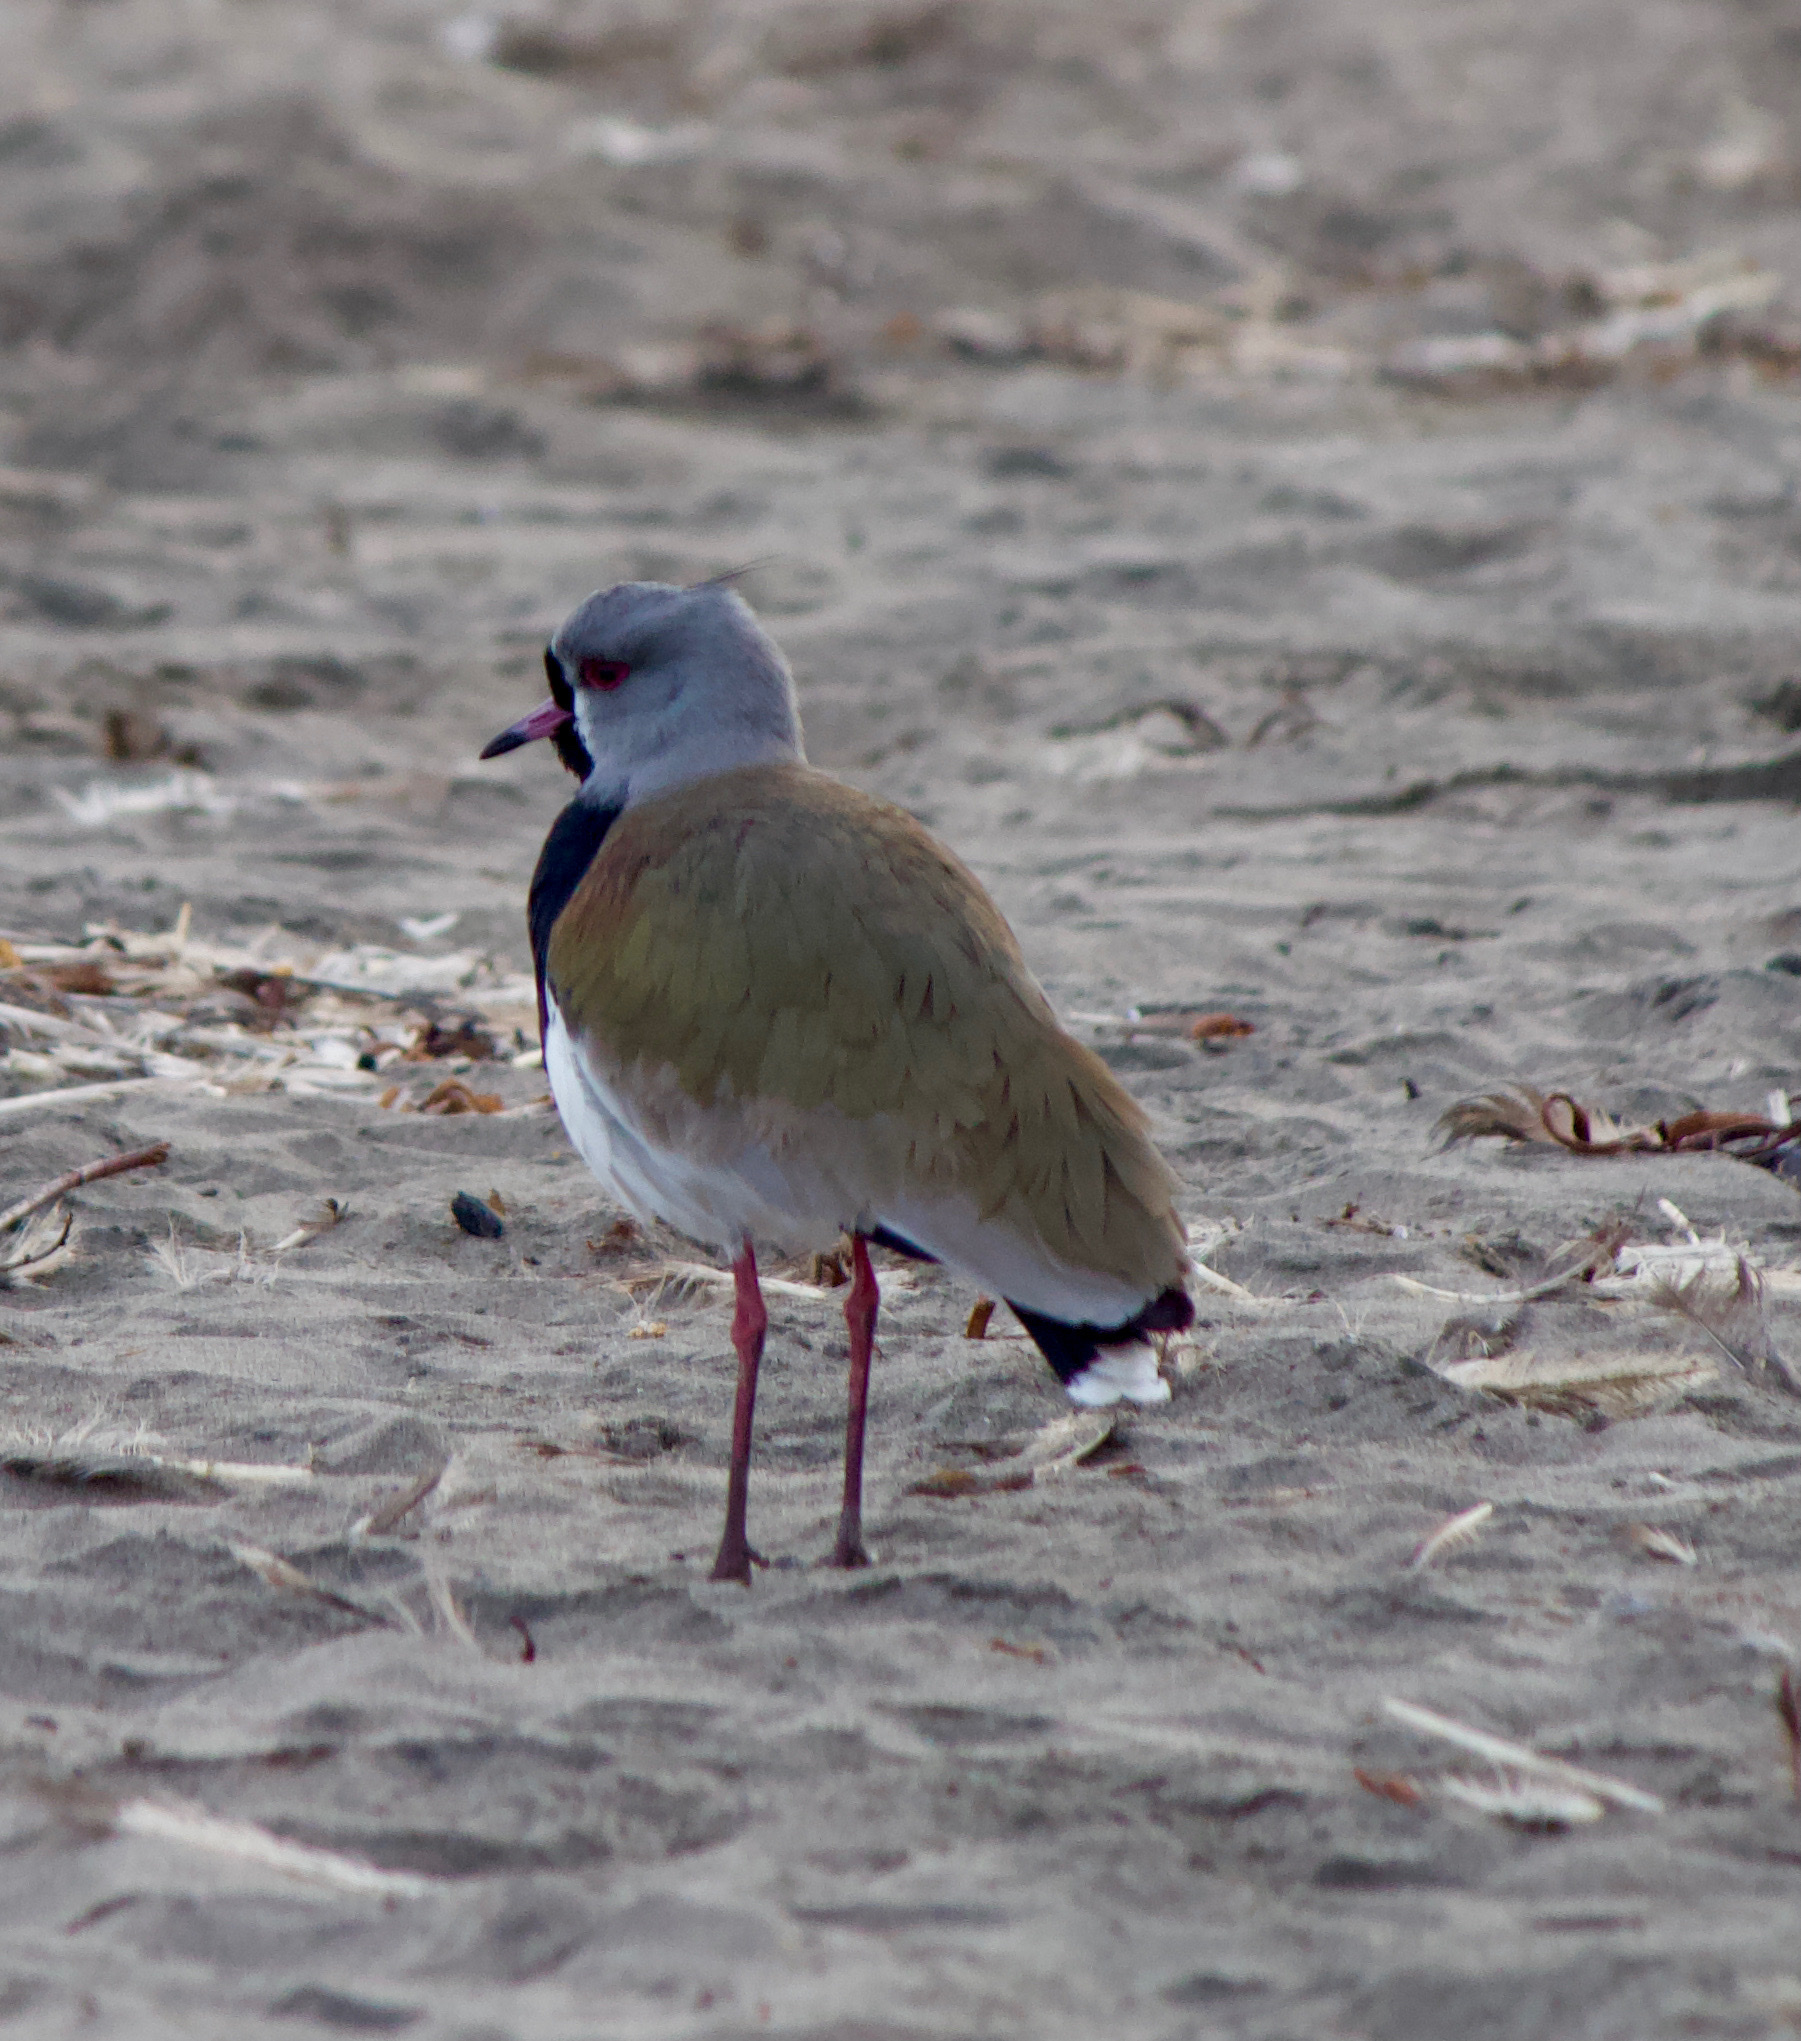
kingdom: Animalia
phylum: Chordata
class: Aves
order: Charadriiformes
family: Charadriidae
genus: Vanellus
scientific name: Vanellus chilensis
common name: Southern lapwing
